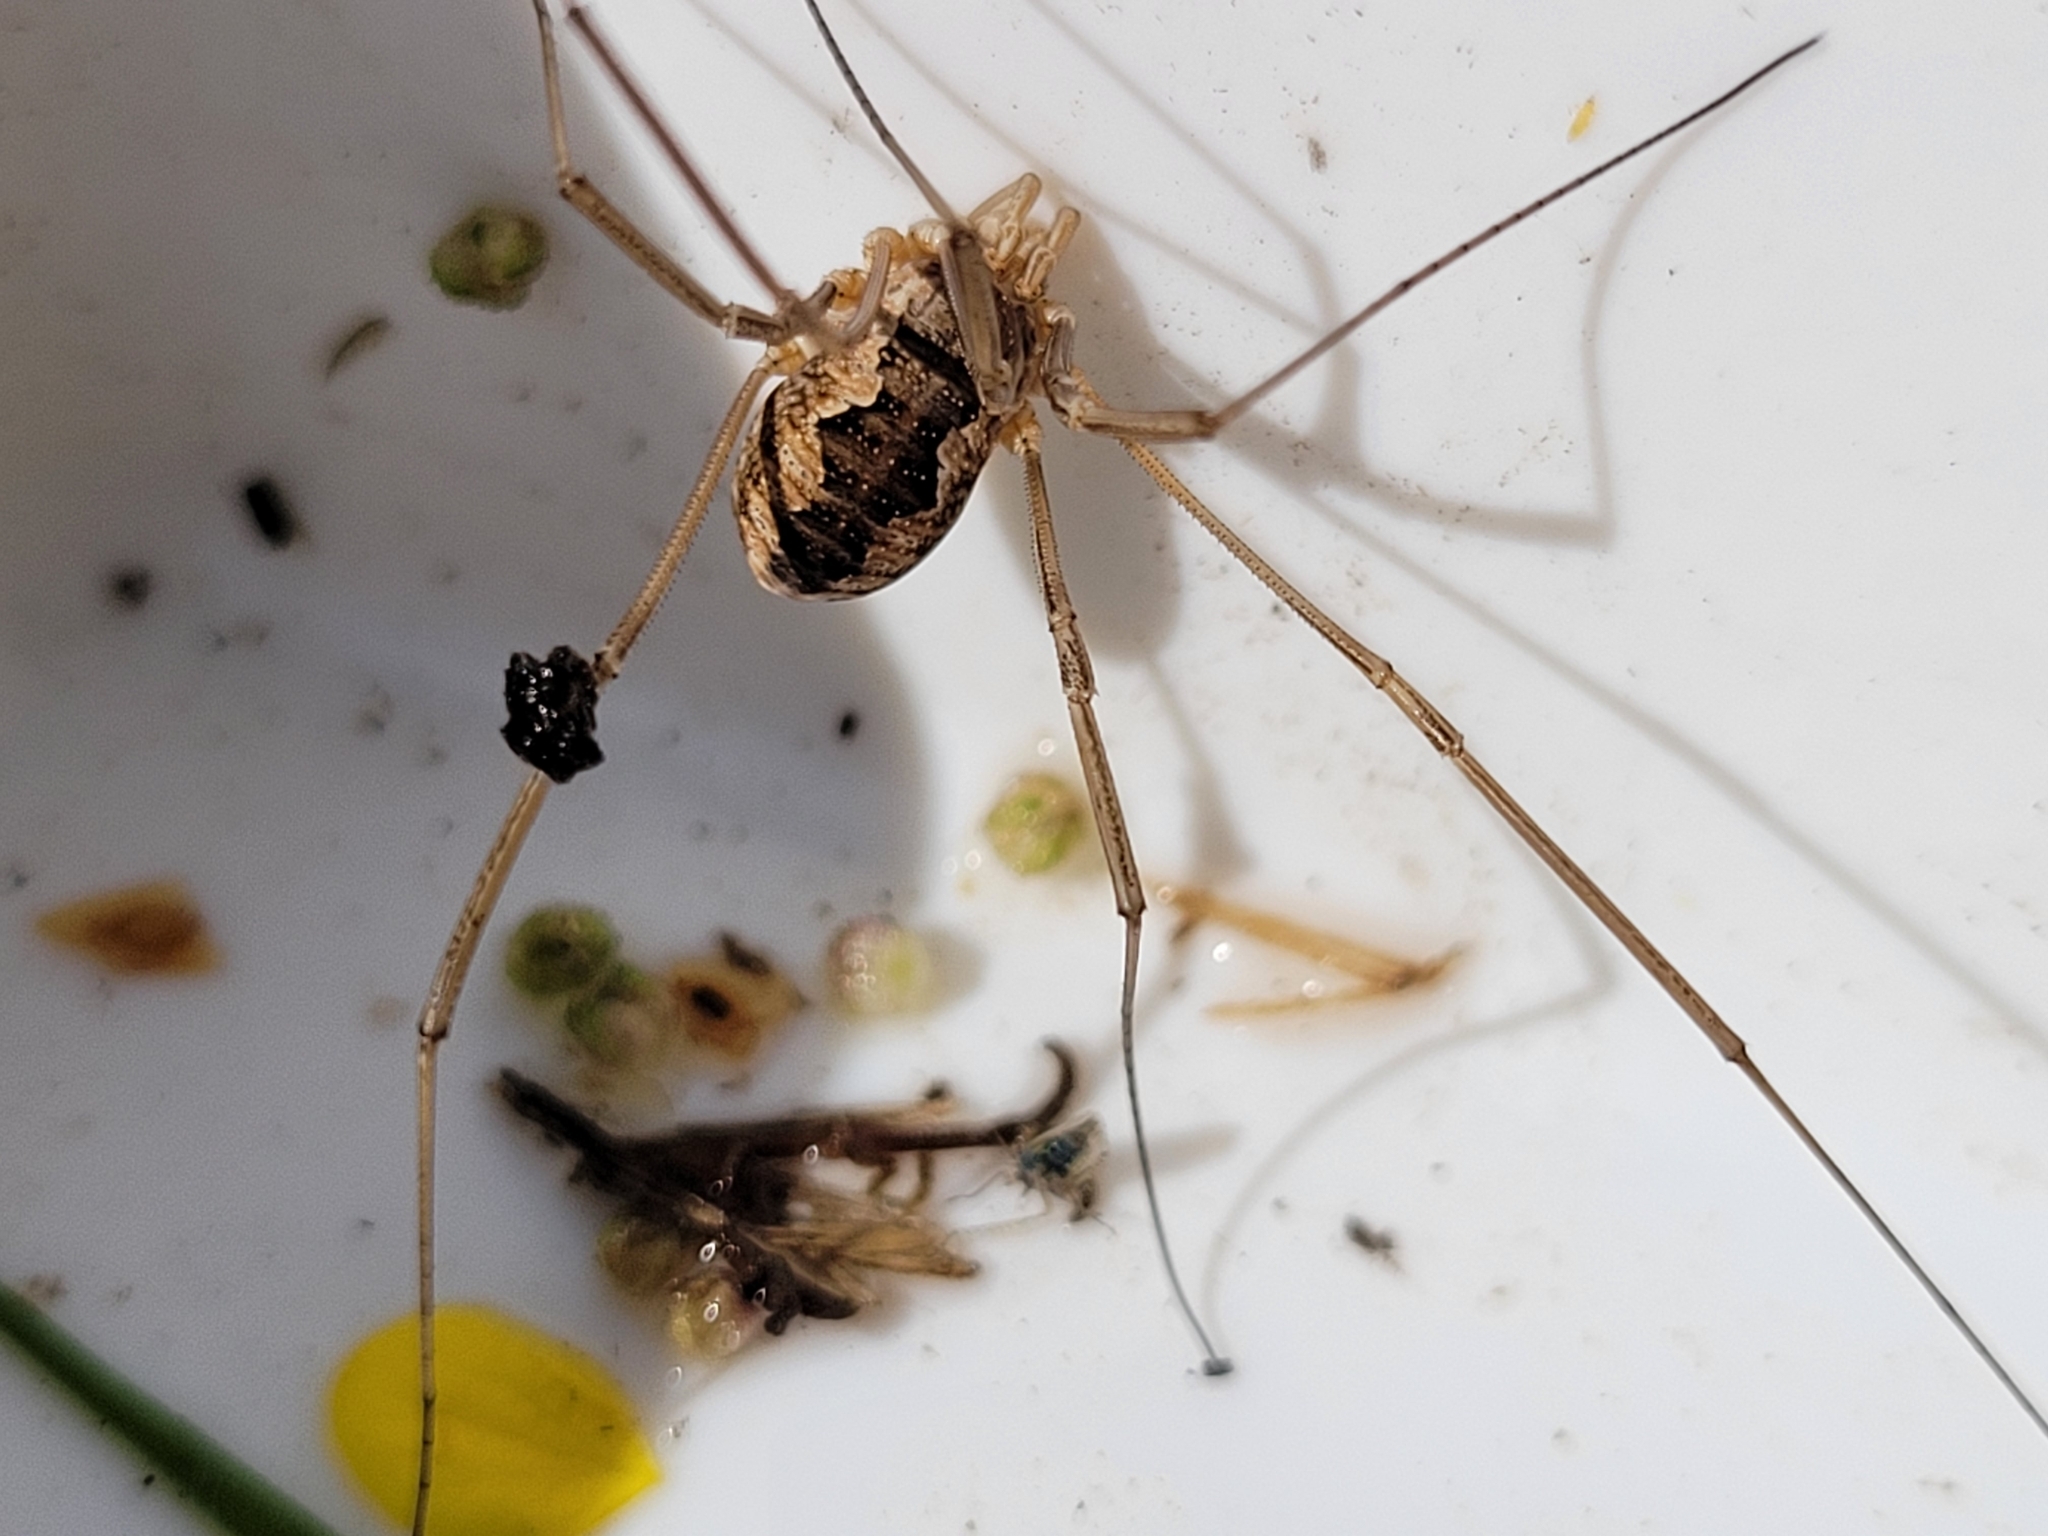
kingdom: Animalia
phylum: Arthropoda
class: Arachnida
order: Opiliones
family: Phalangiidae
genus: Phalangium
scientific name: Phalangium opilio
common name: Daddy longleg
